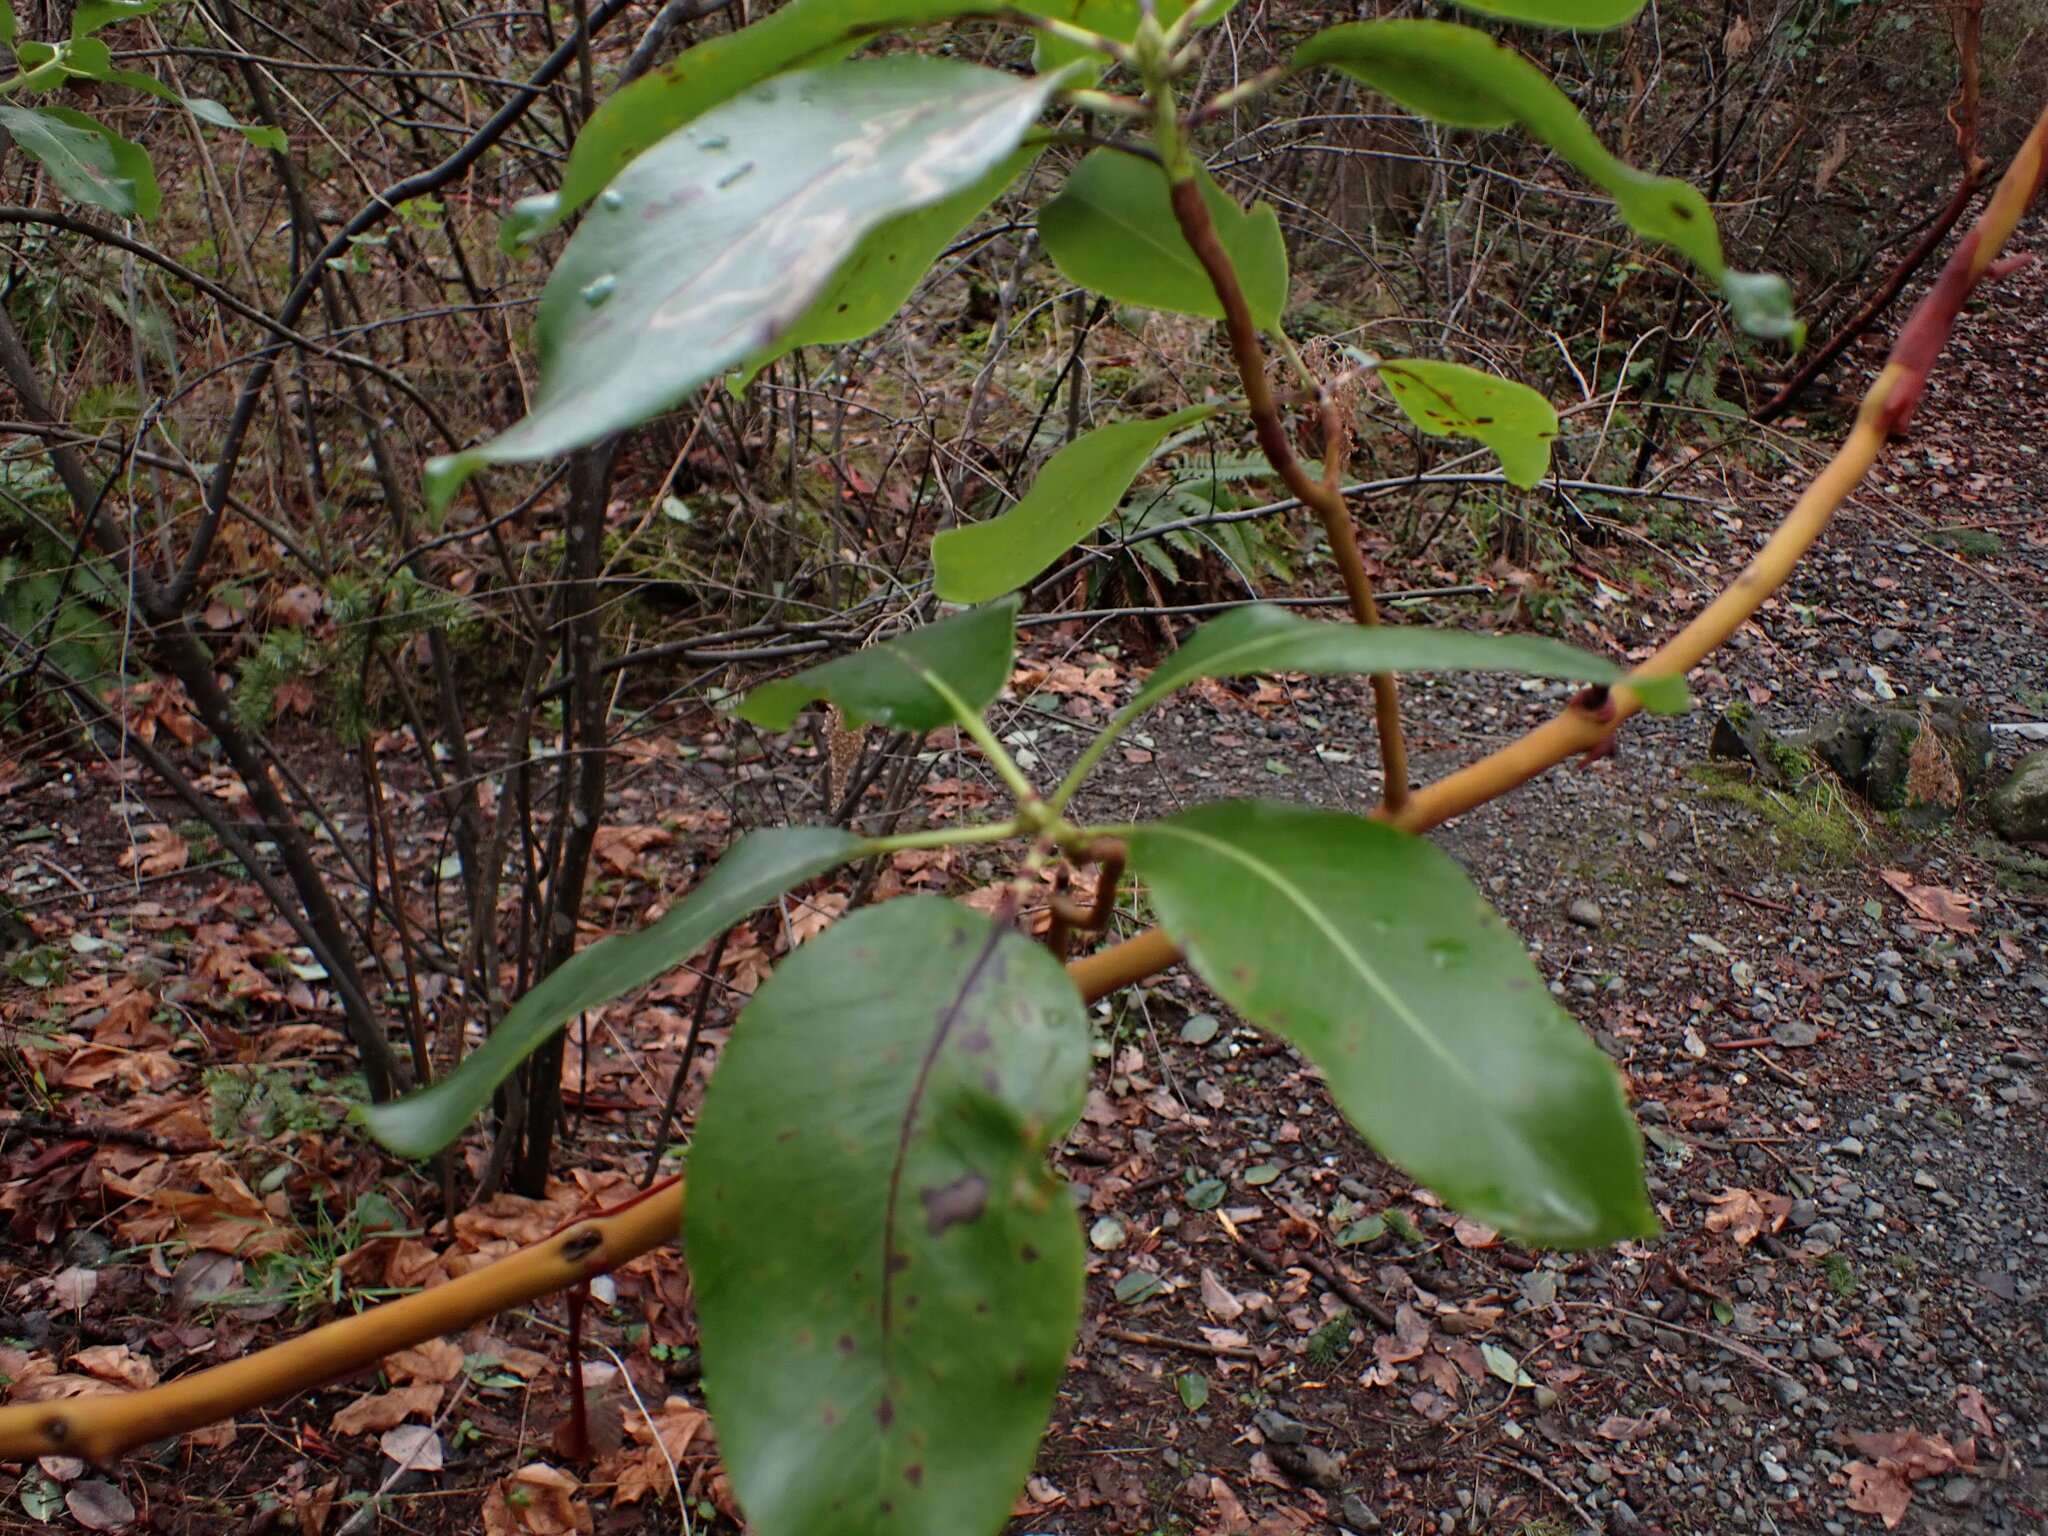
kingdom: Plantae
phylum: Tracheophyta
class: Magnoliopsida
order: Ericales
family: Ericaceae
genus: Arbutus
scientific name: Arbutus menziesii
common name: Pacific madrone
